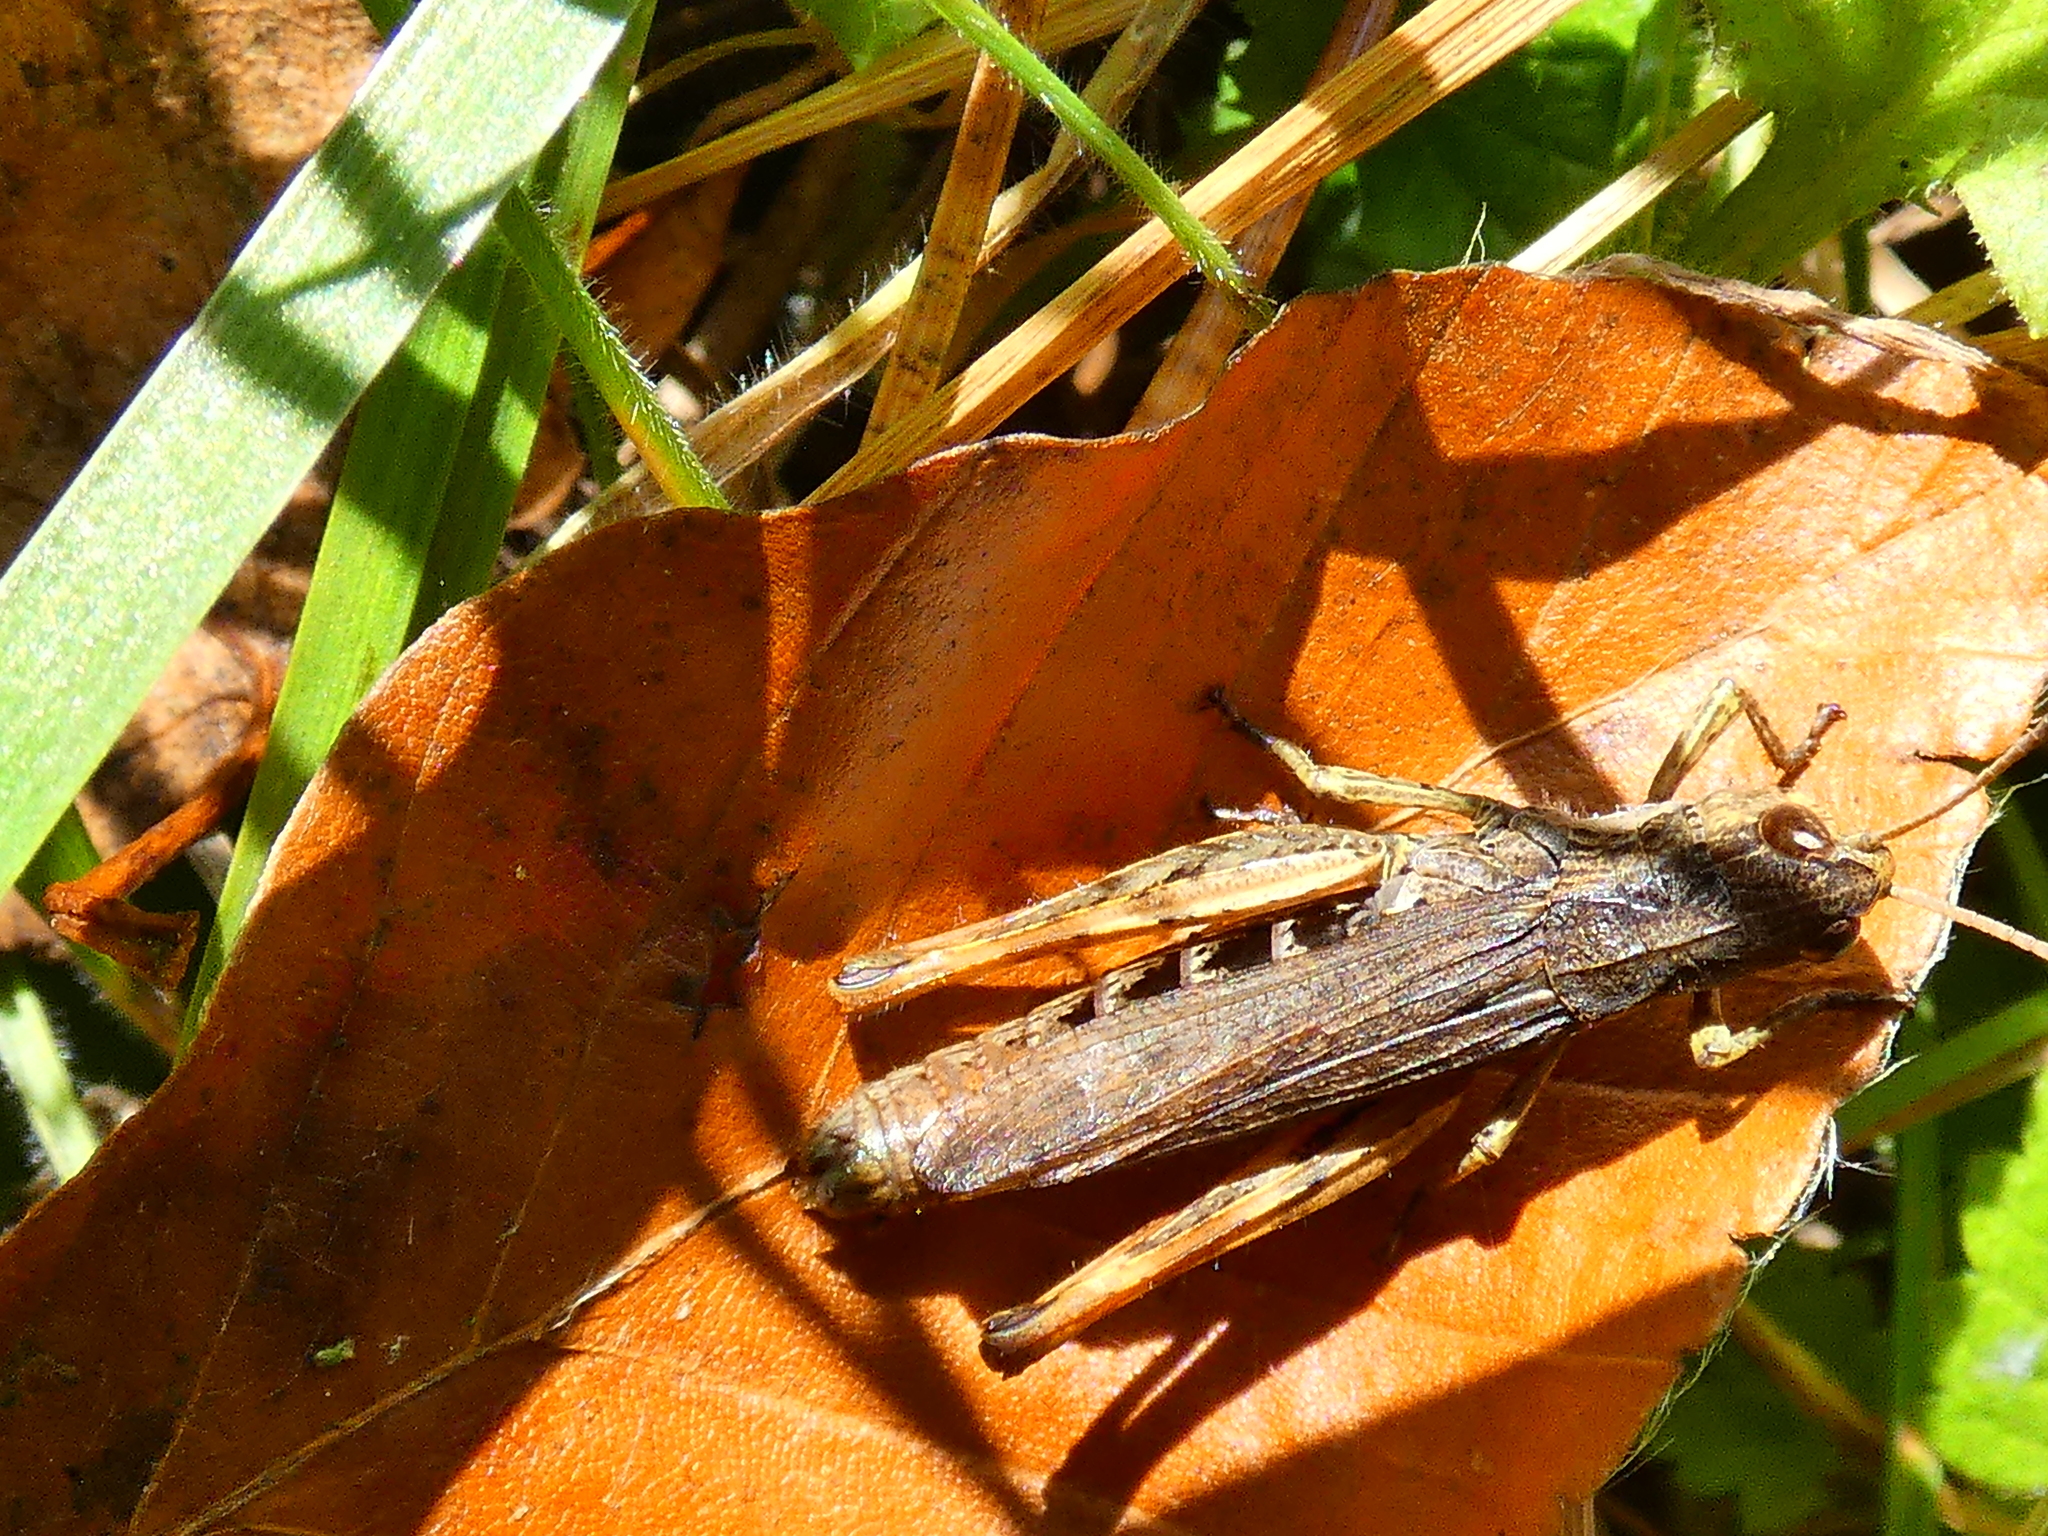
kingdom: Animalia
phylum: Arthropoda
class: Insecta
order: Orthoptera
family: Acrididae
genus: Gomphocerippus
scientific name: Gomphocerippus rufus
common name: Rufous grasshopper
